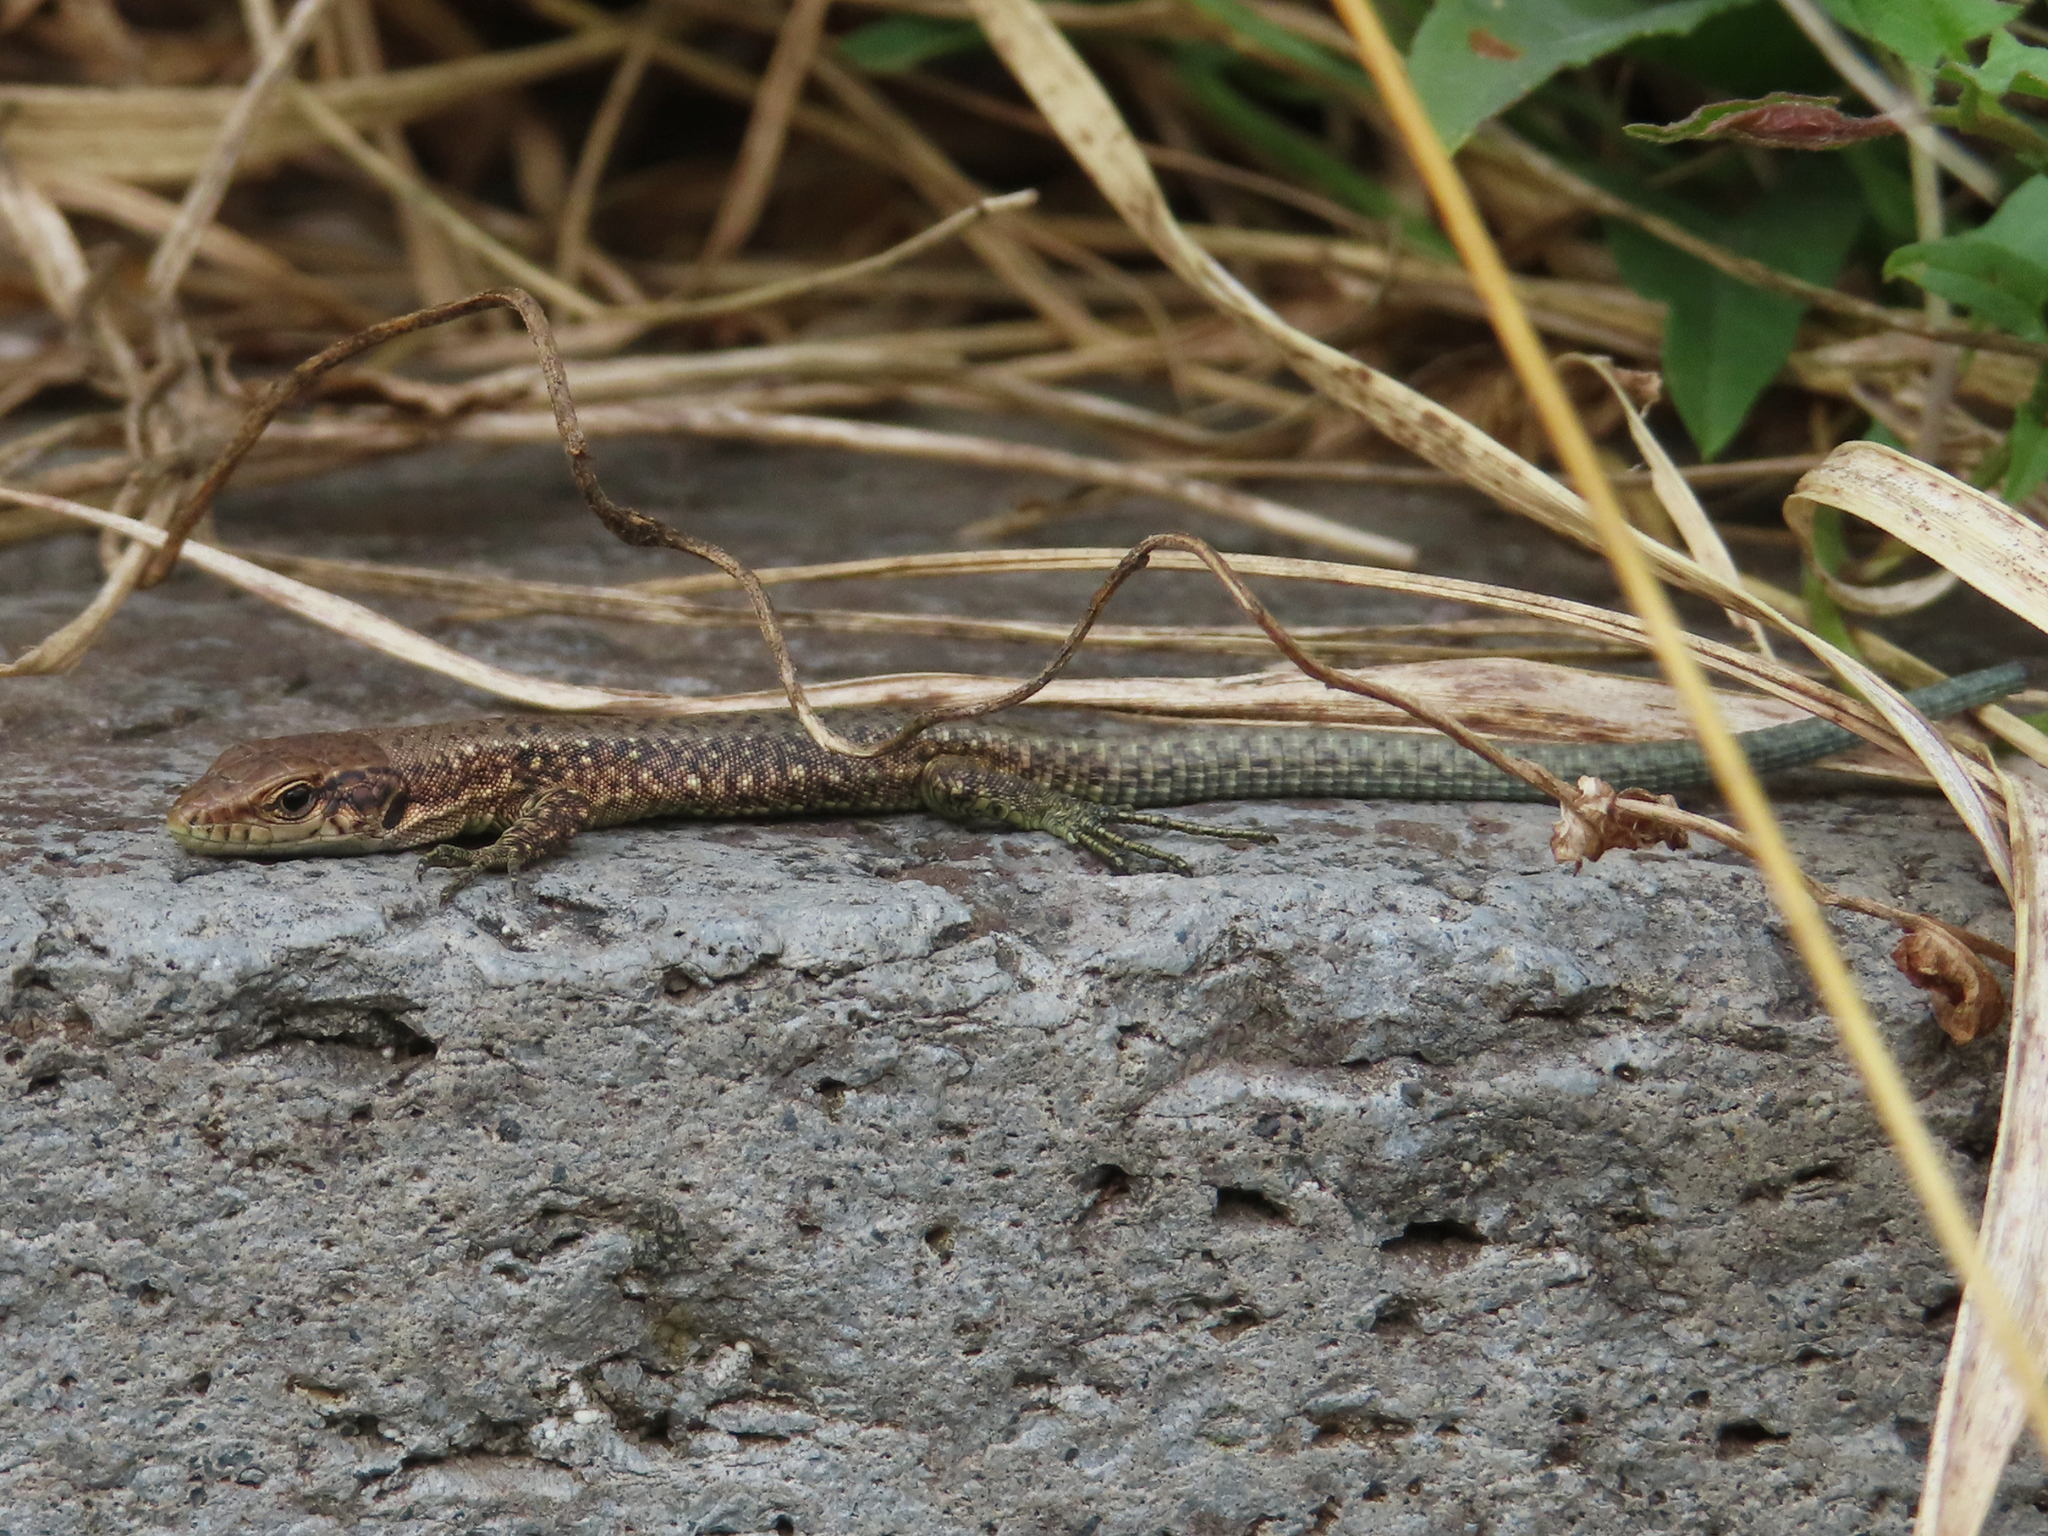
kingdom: Animalia
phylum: Chordata
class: Squamata
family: Lacertidae
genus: Darevskia
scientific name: Darevskia armeniaca
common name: Armenian lizard
